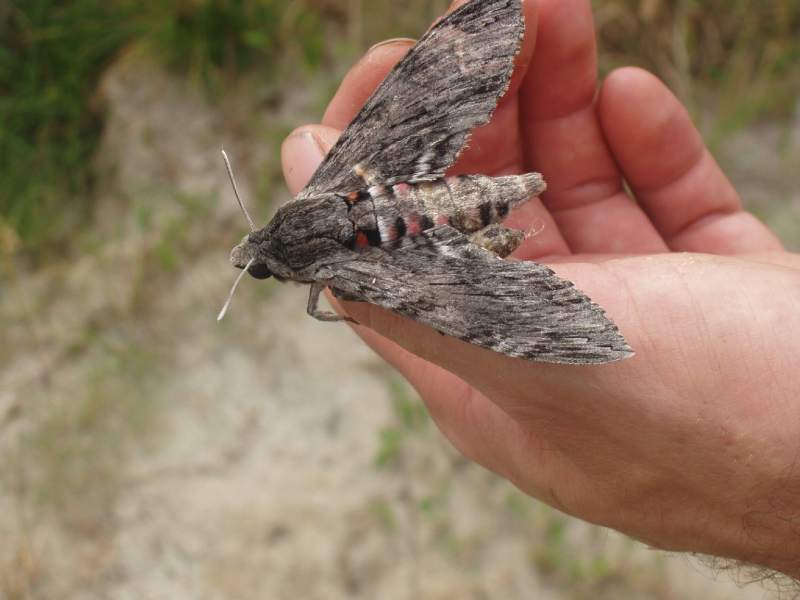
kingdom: Animalia
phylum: Arthropoda
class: Insecta
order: Lepidoptera
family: Sphingidae
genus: Agrius
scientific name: Agrius convolvuli
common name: Convolvulus hawkmoth
